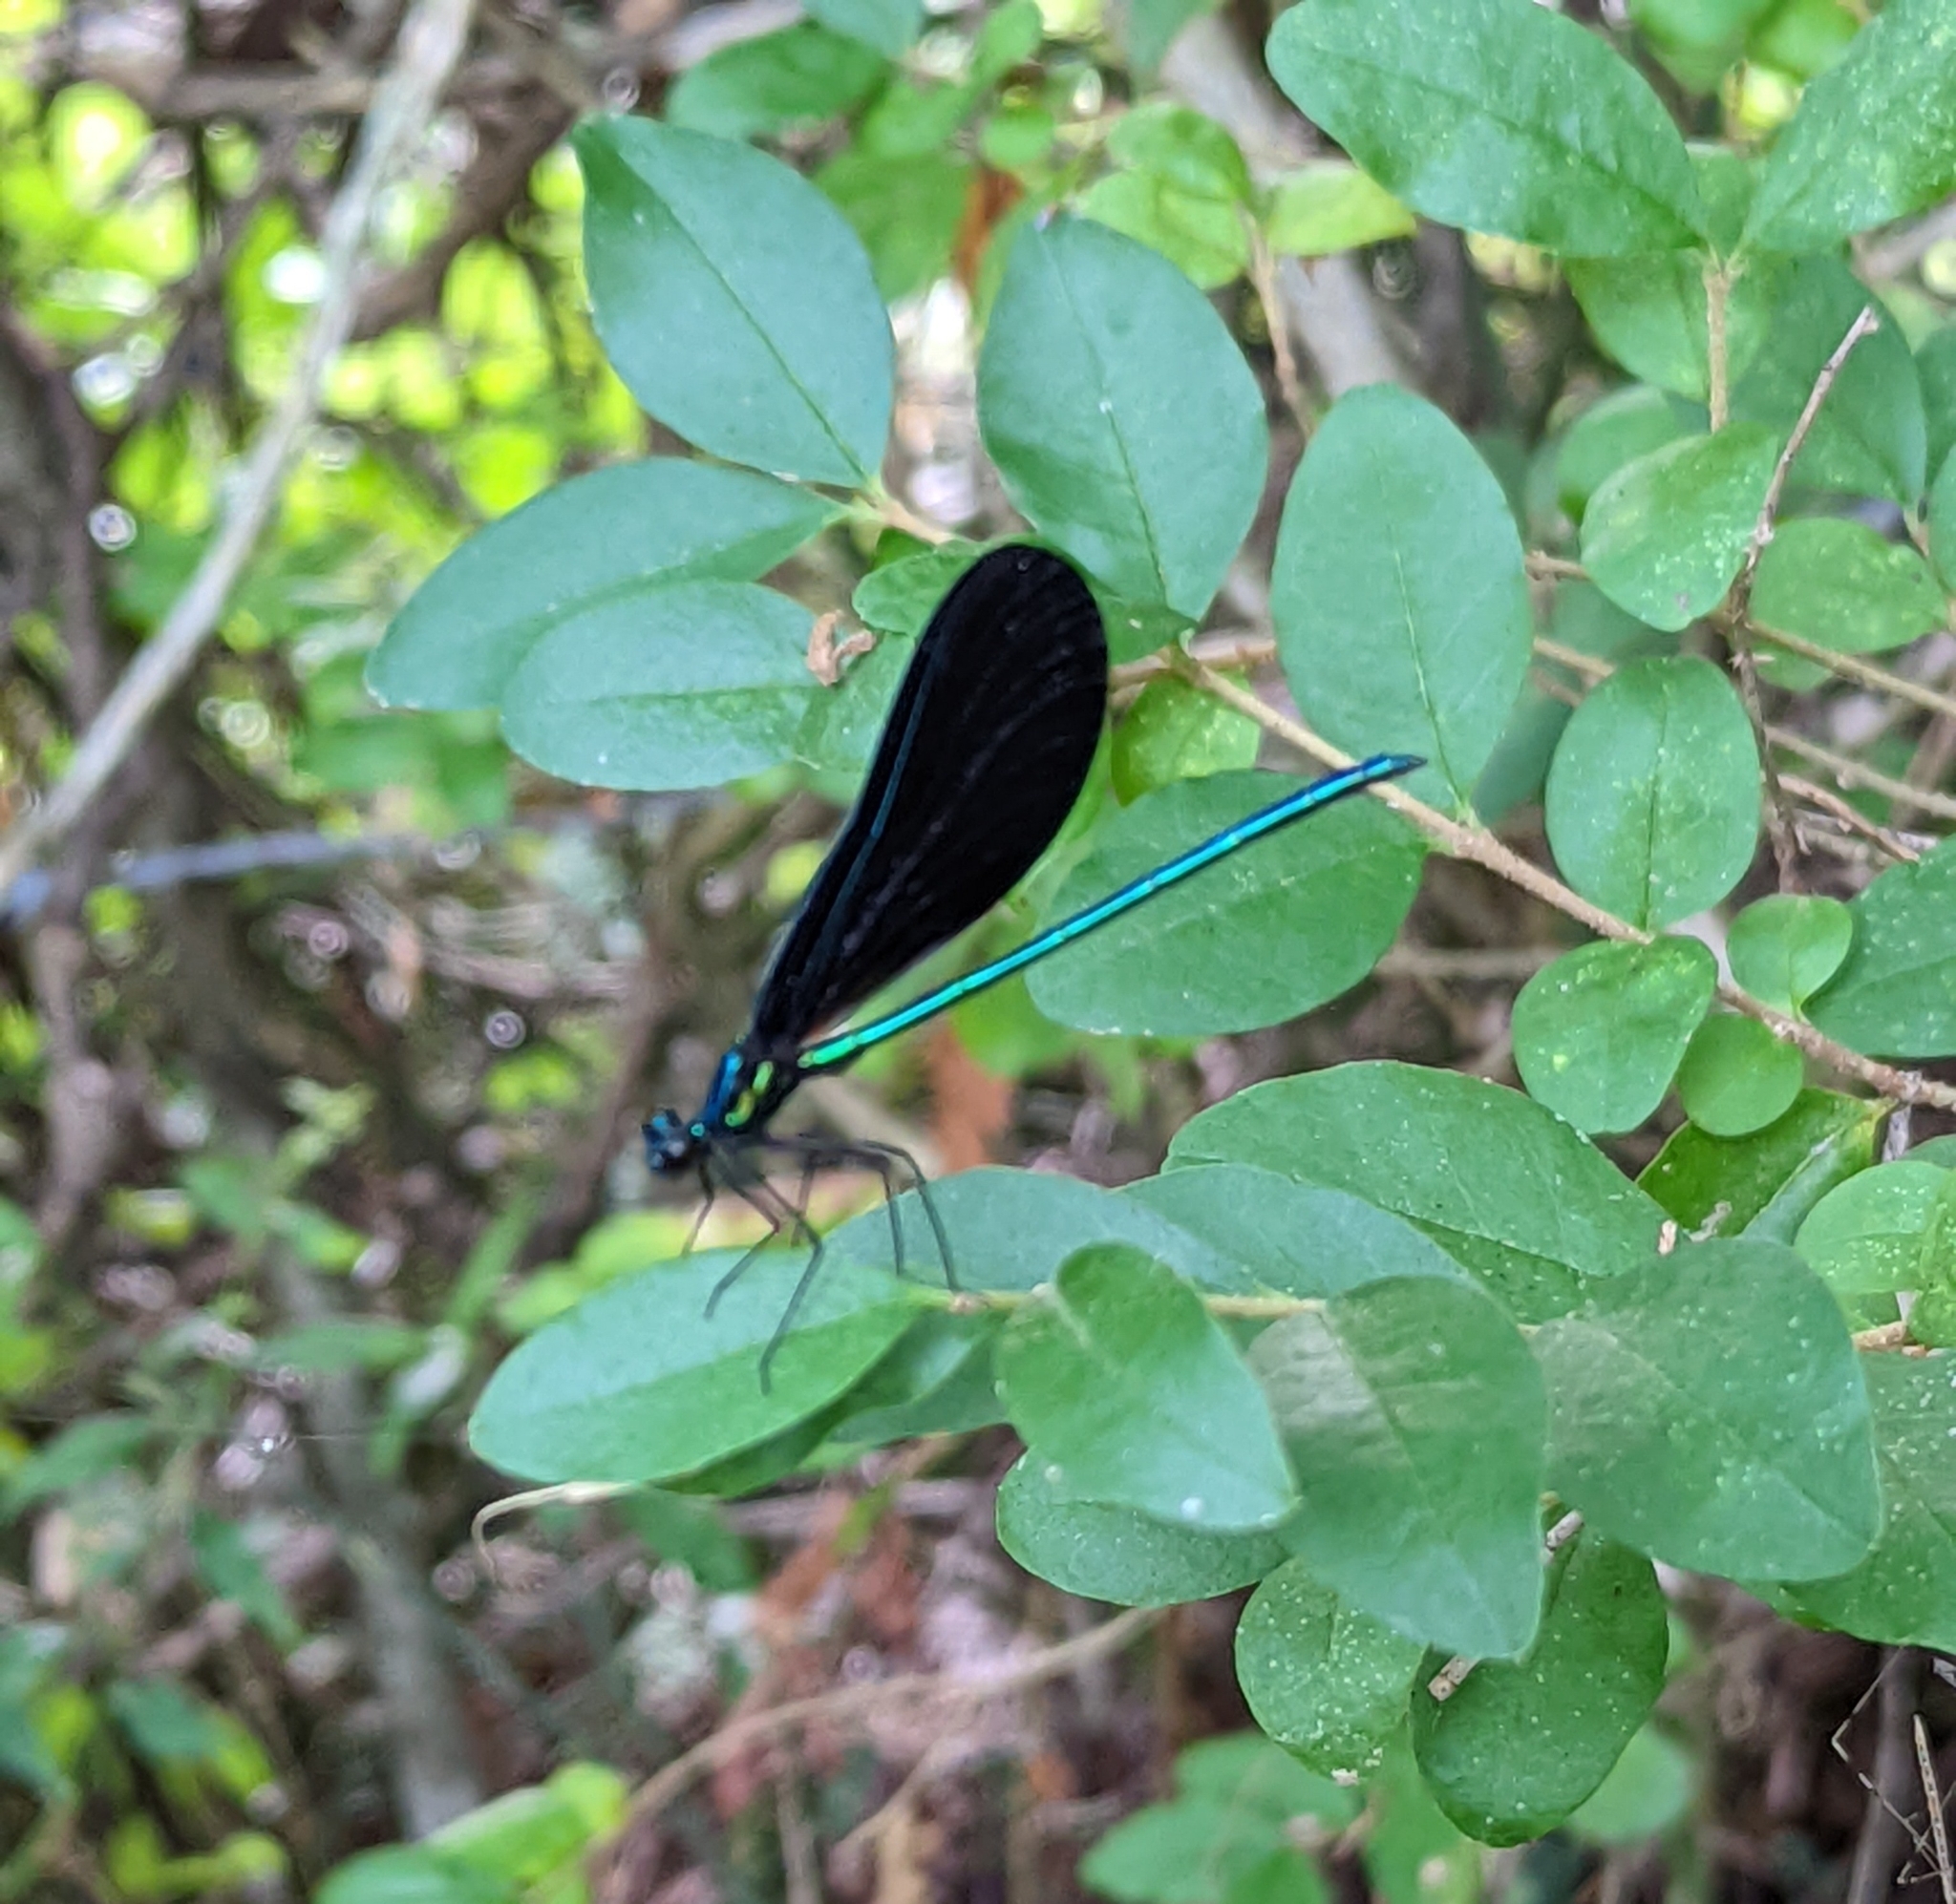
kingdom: Animalia
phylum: Arthropoda
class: Insecta
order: Odonata
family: Calopterygidae
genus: Calopteryx
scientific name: Calopteryx maculata
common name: Ebony jewelwing
